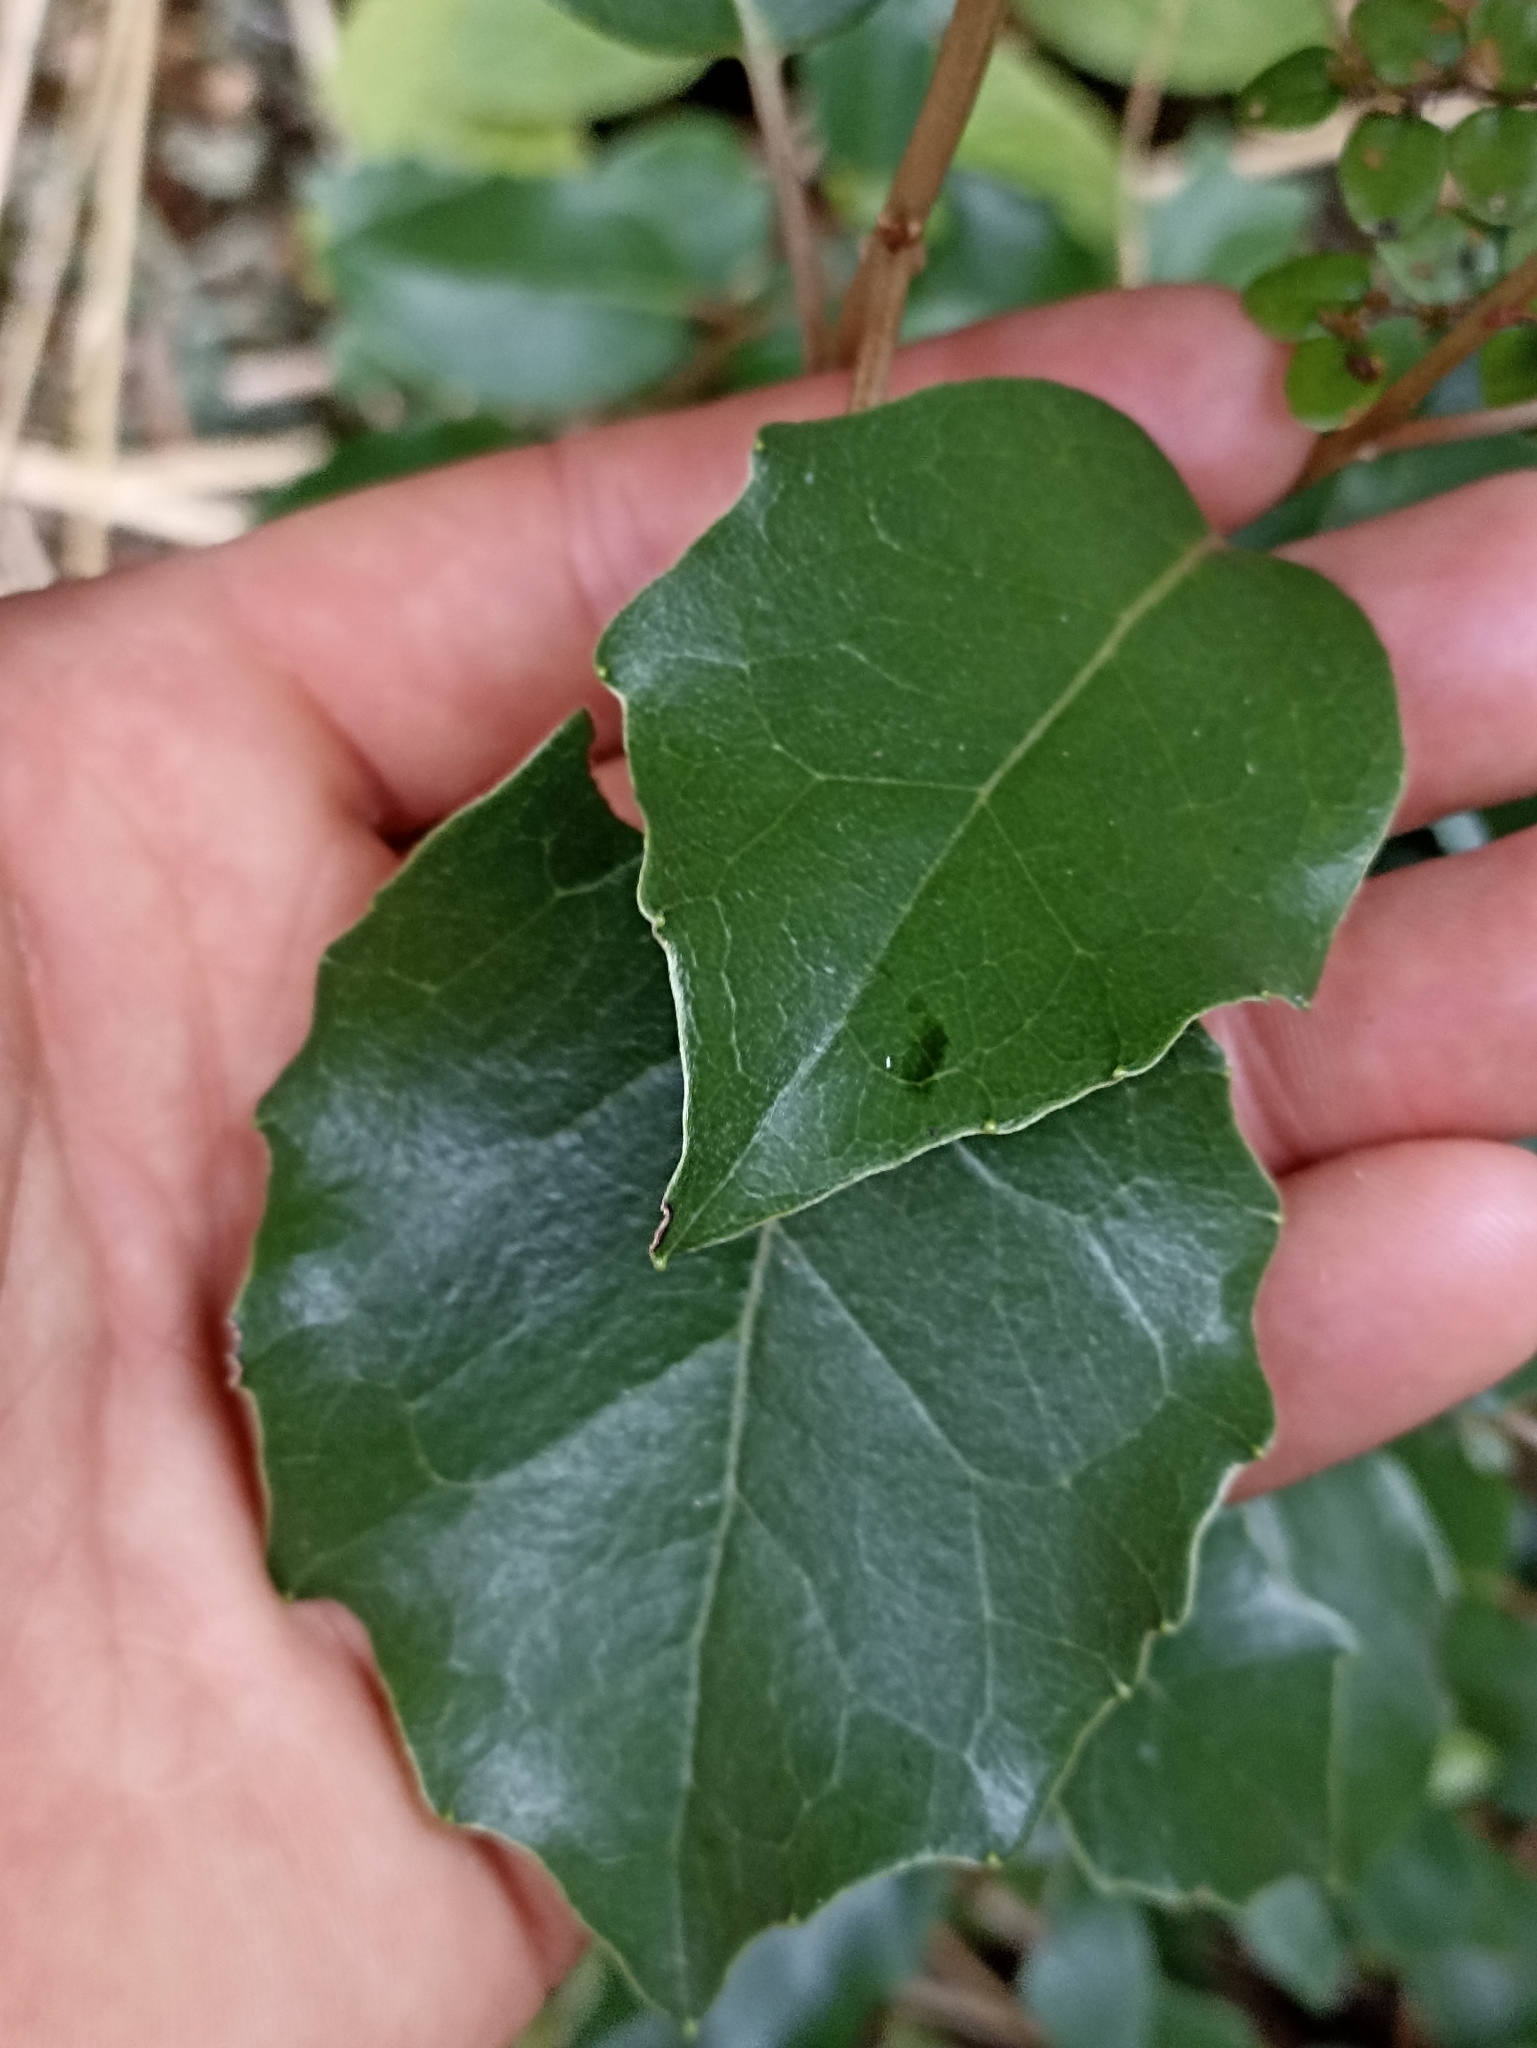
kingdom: Plantae
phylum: Tracheophyta
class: Magnoliopsida
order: Asterales
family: Asteraceae
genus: Olearia
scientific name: Olearia arborescens
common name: Glossy tree daisy
